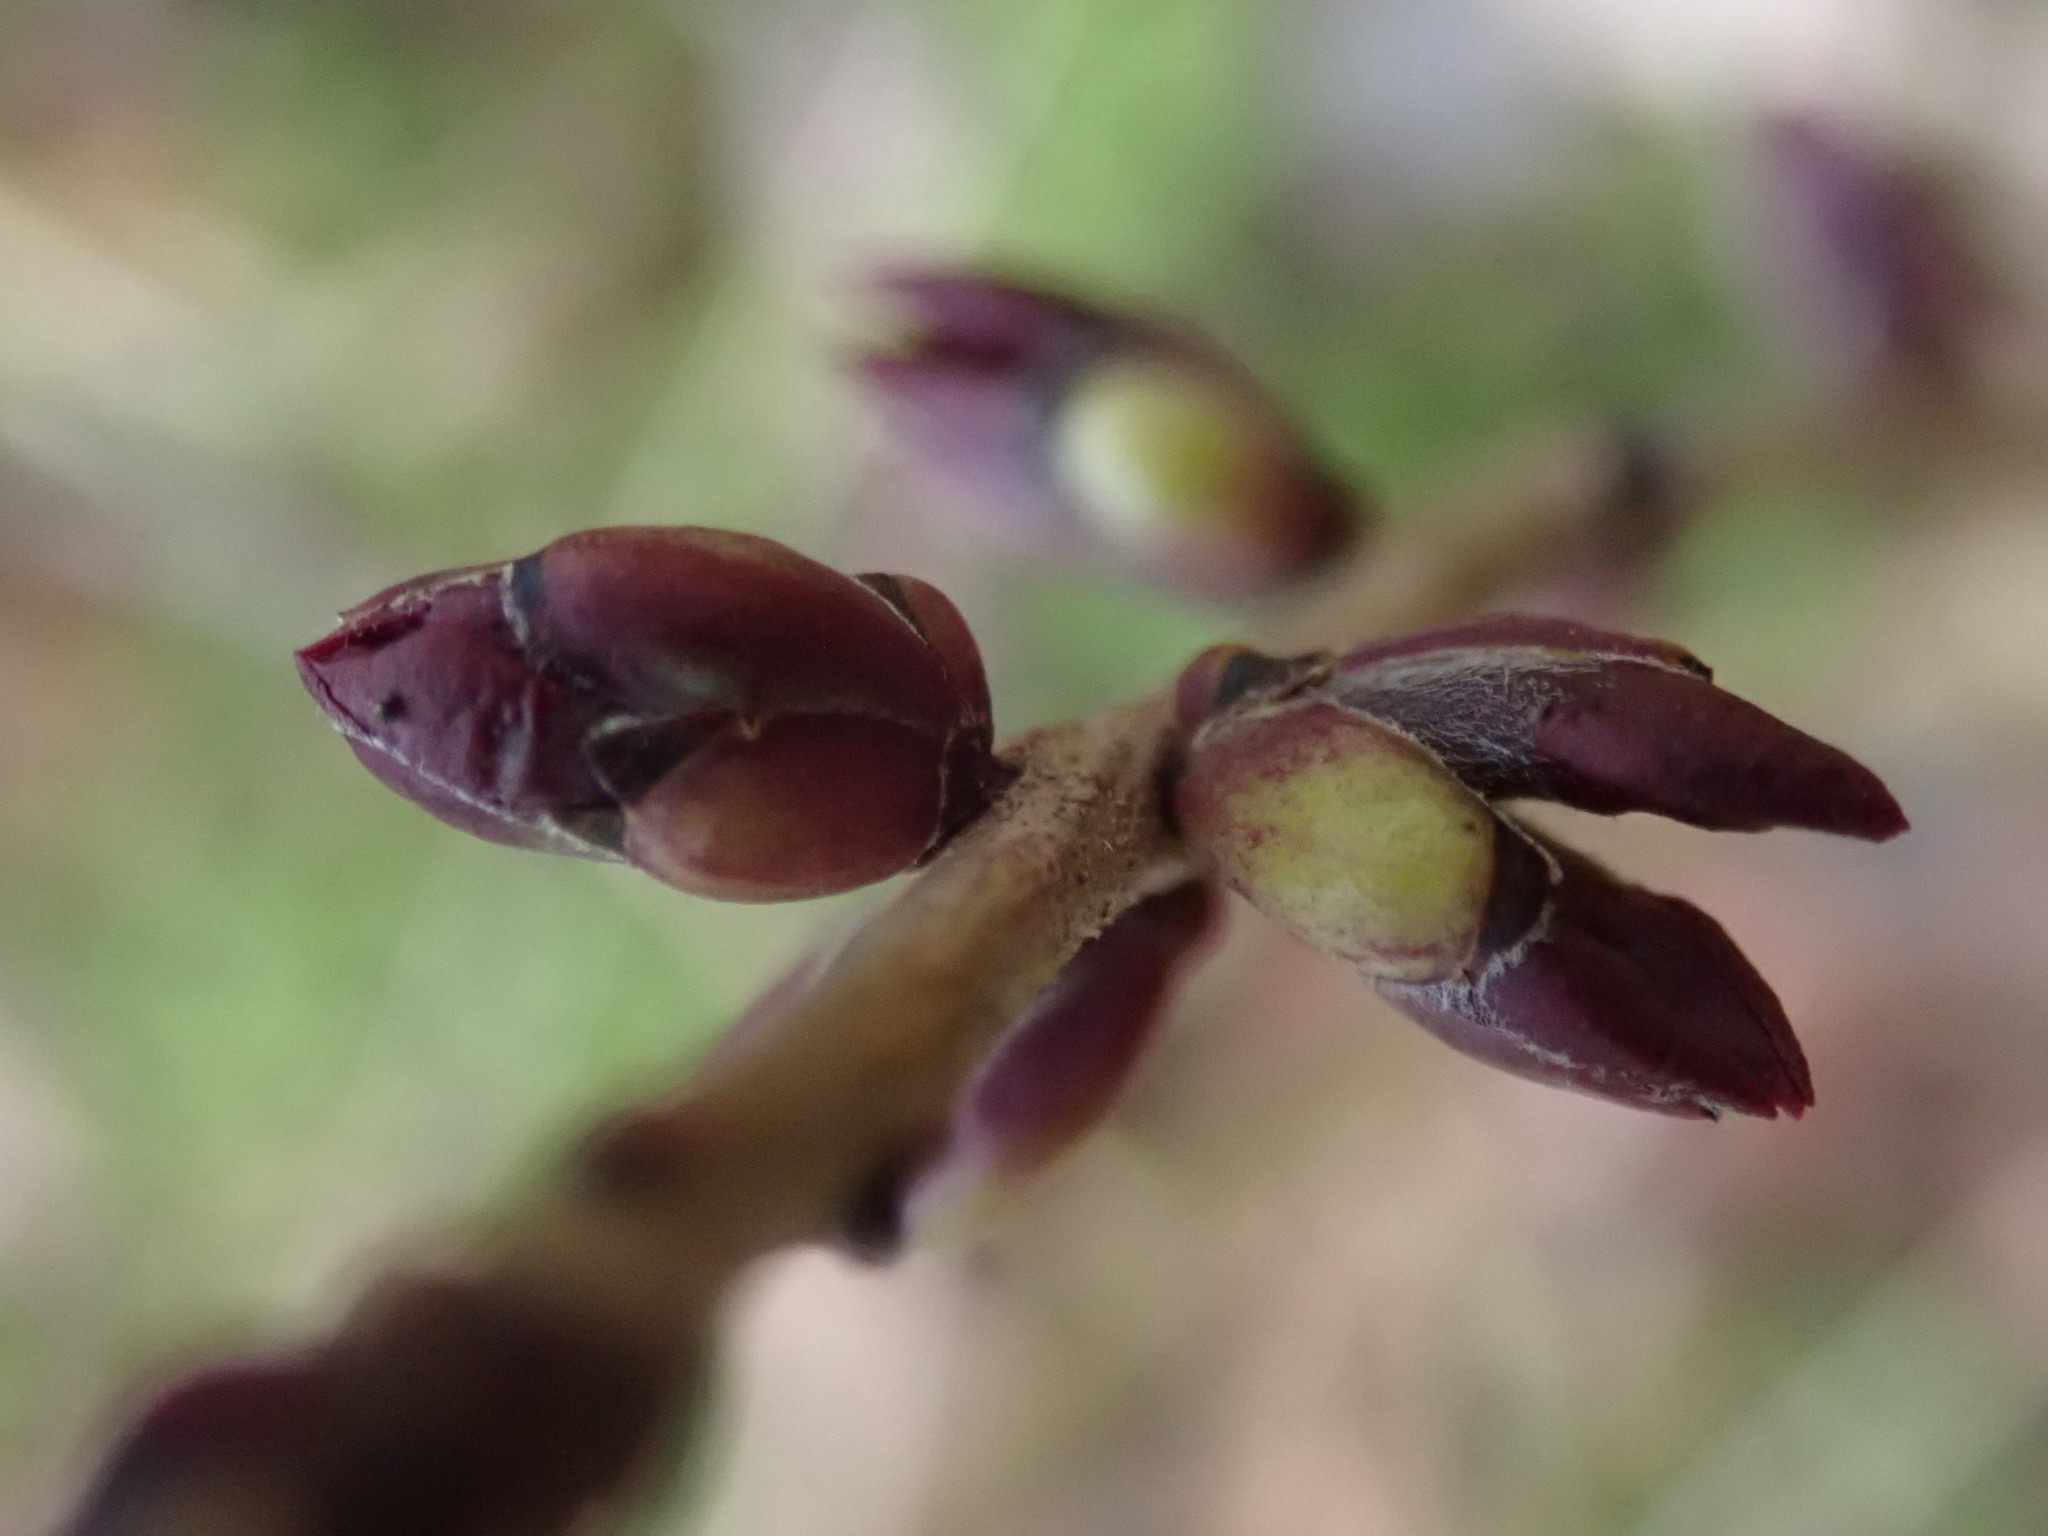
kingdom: Plantae
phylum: Tracheophyta
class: Magnoliopsida
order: Malvales
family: Thymelaeaceae
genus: Daphne
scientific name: Daphne mezereum
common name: Mezereon
